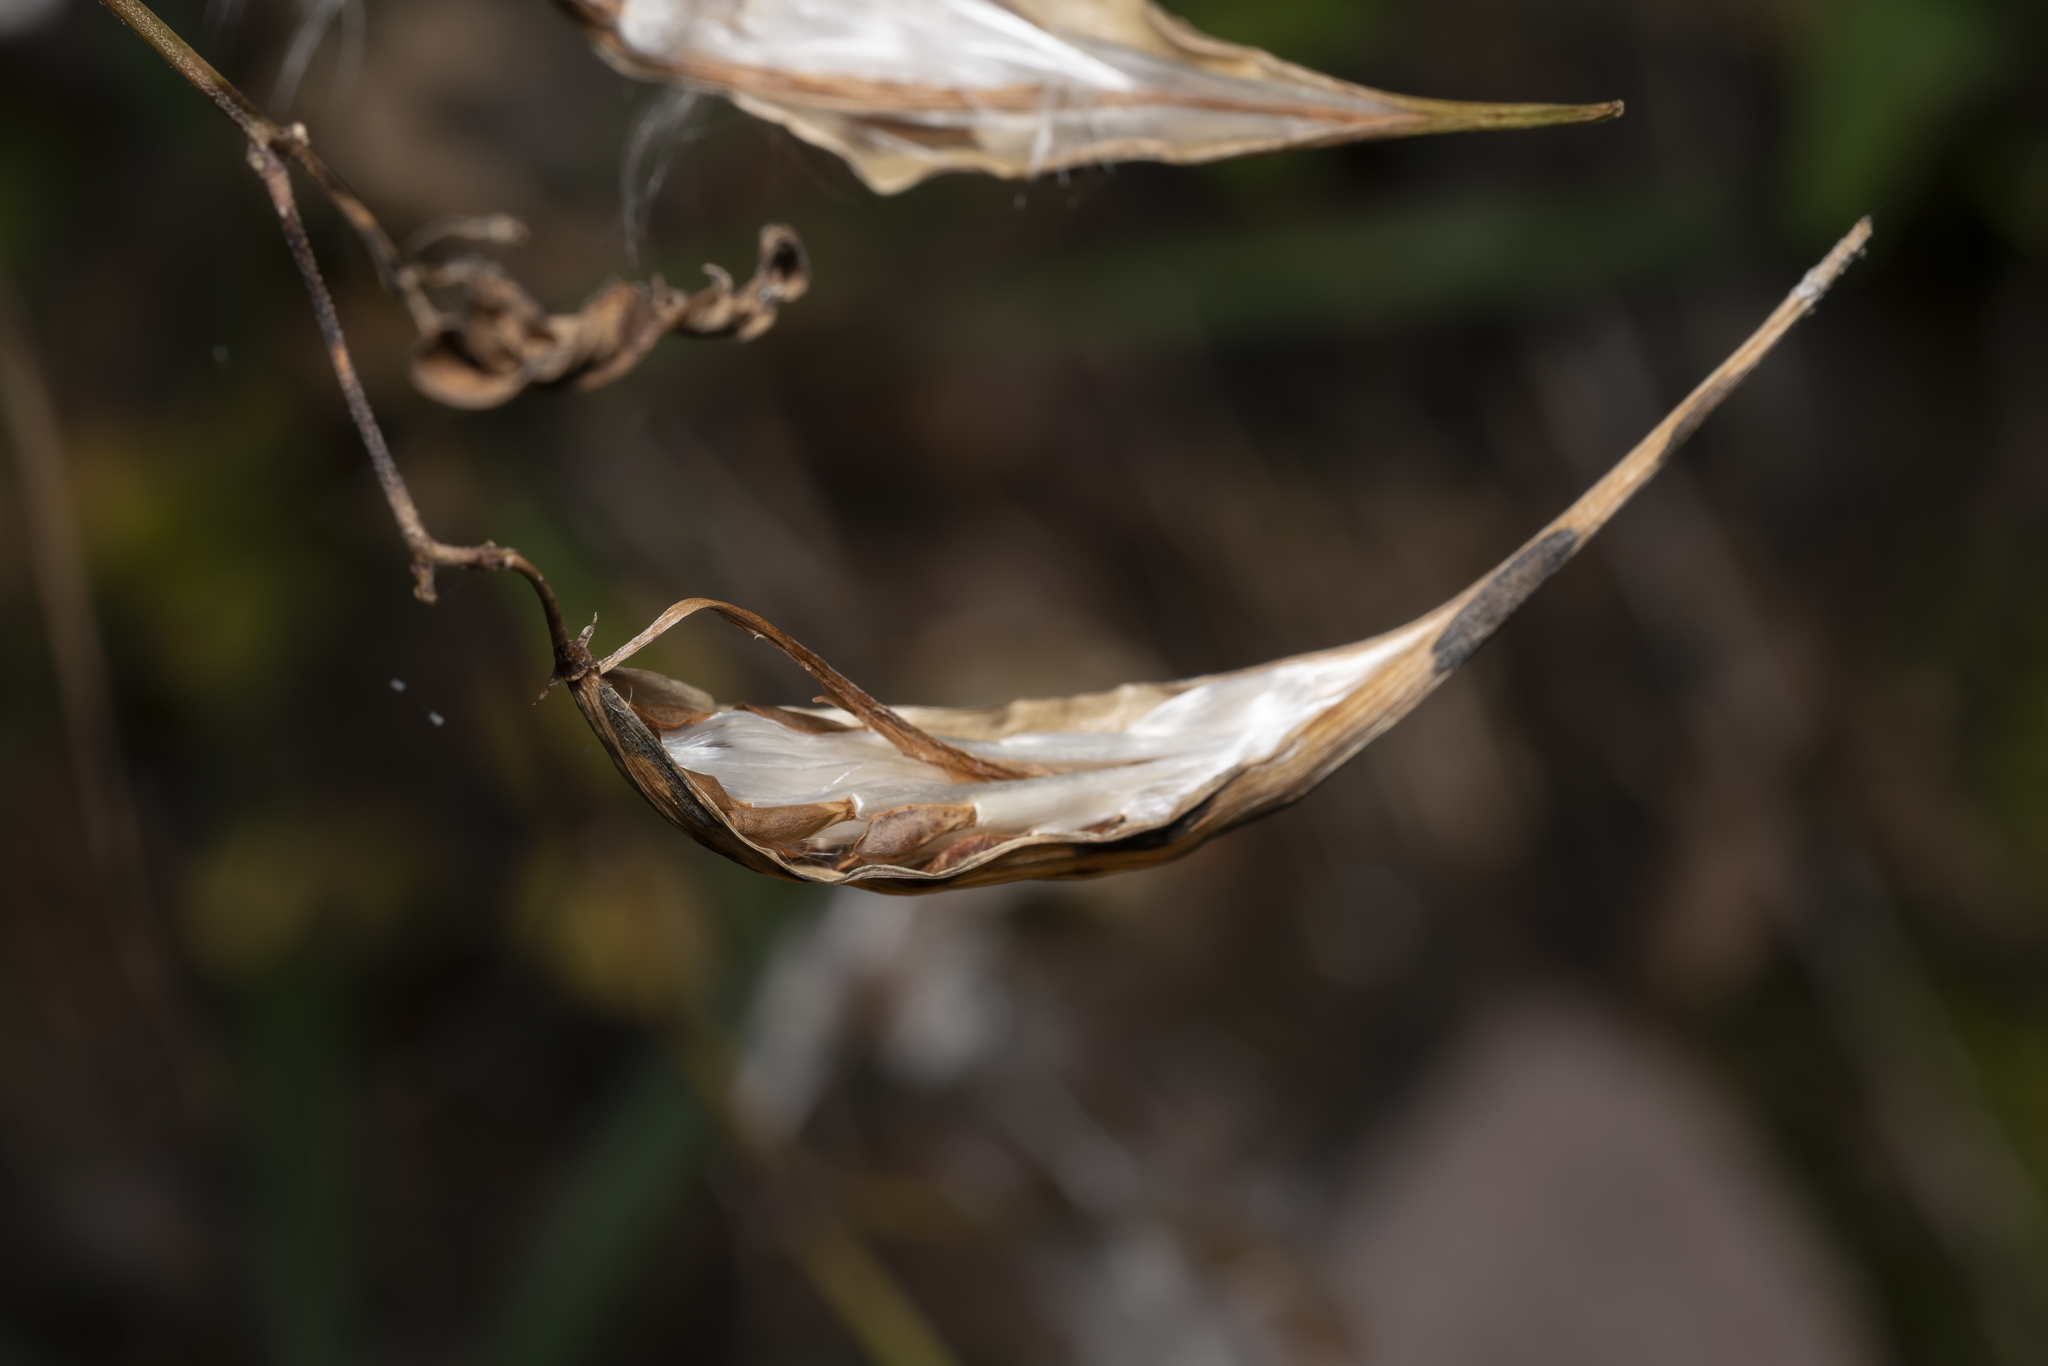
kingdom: Plantae
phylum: Tracheophyta
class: Magnoliopsida
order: Gentianales
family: Apocynaceae
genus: Vincetoxicum
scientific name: Vincetoxicum hirundinaria
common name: White swallowwort
